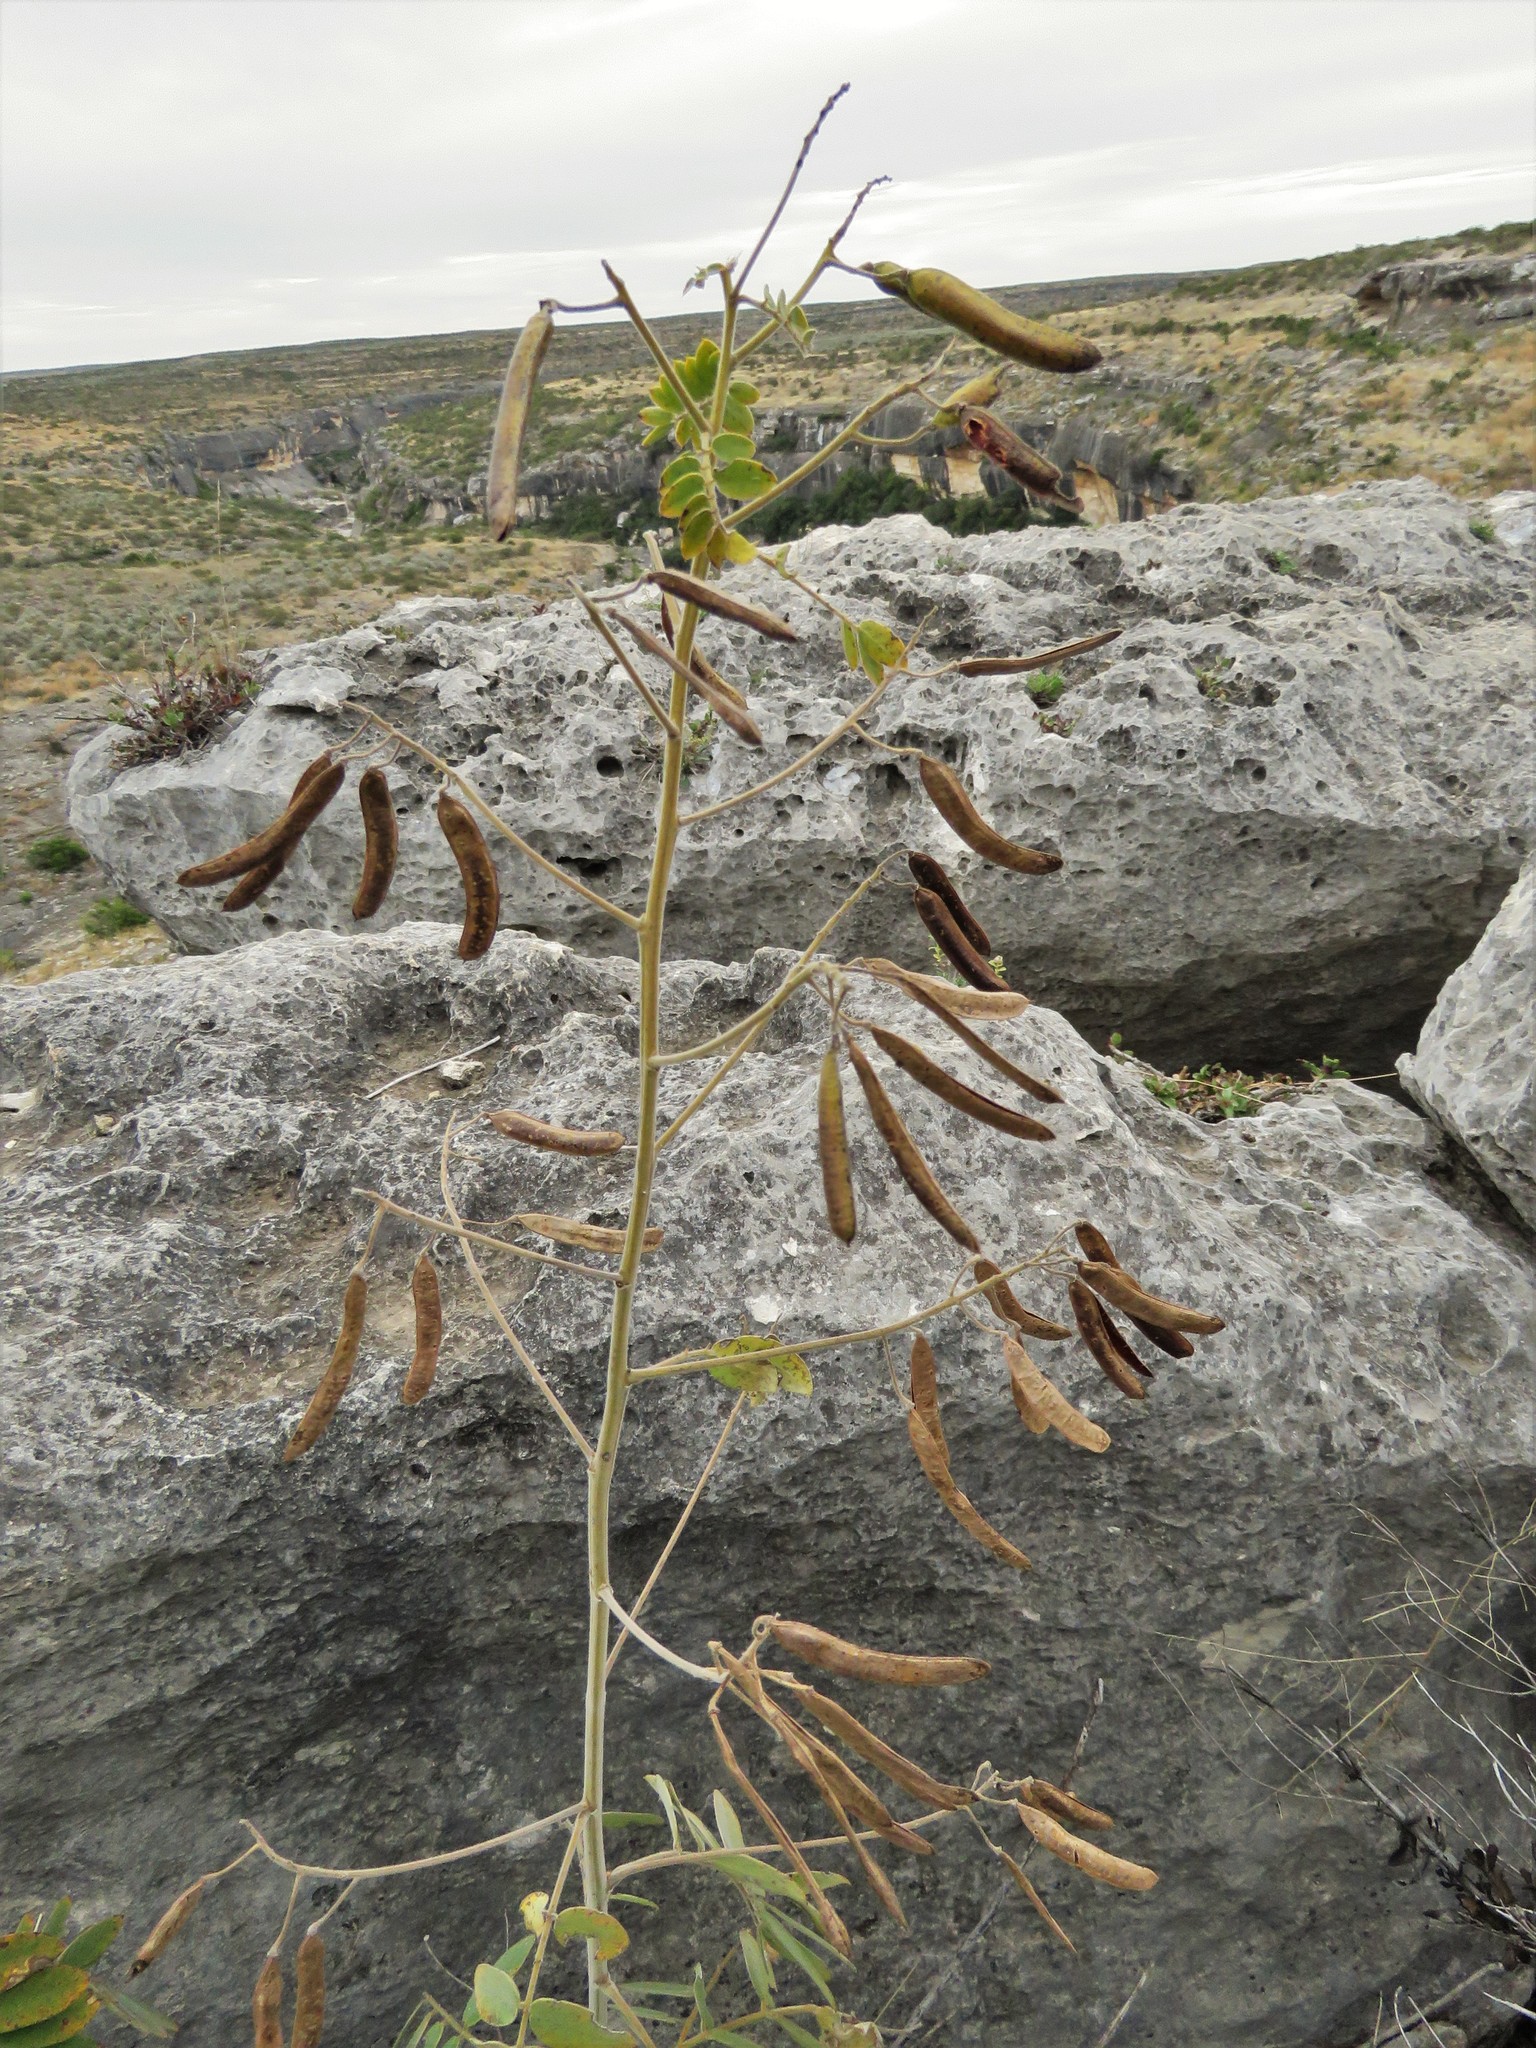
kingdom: Plantae
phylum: Tracheophyta
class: Magnoliopsida
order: Fabales
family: Fabaceae
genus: Senna
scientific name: Senna lindheimeriana
